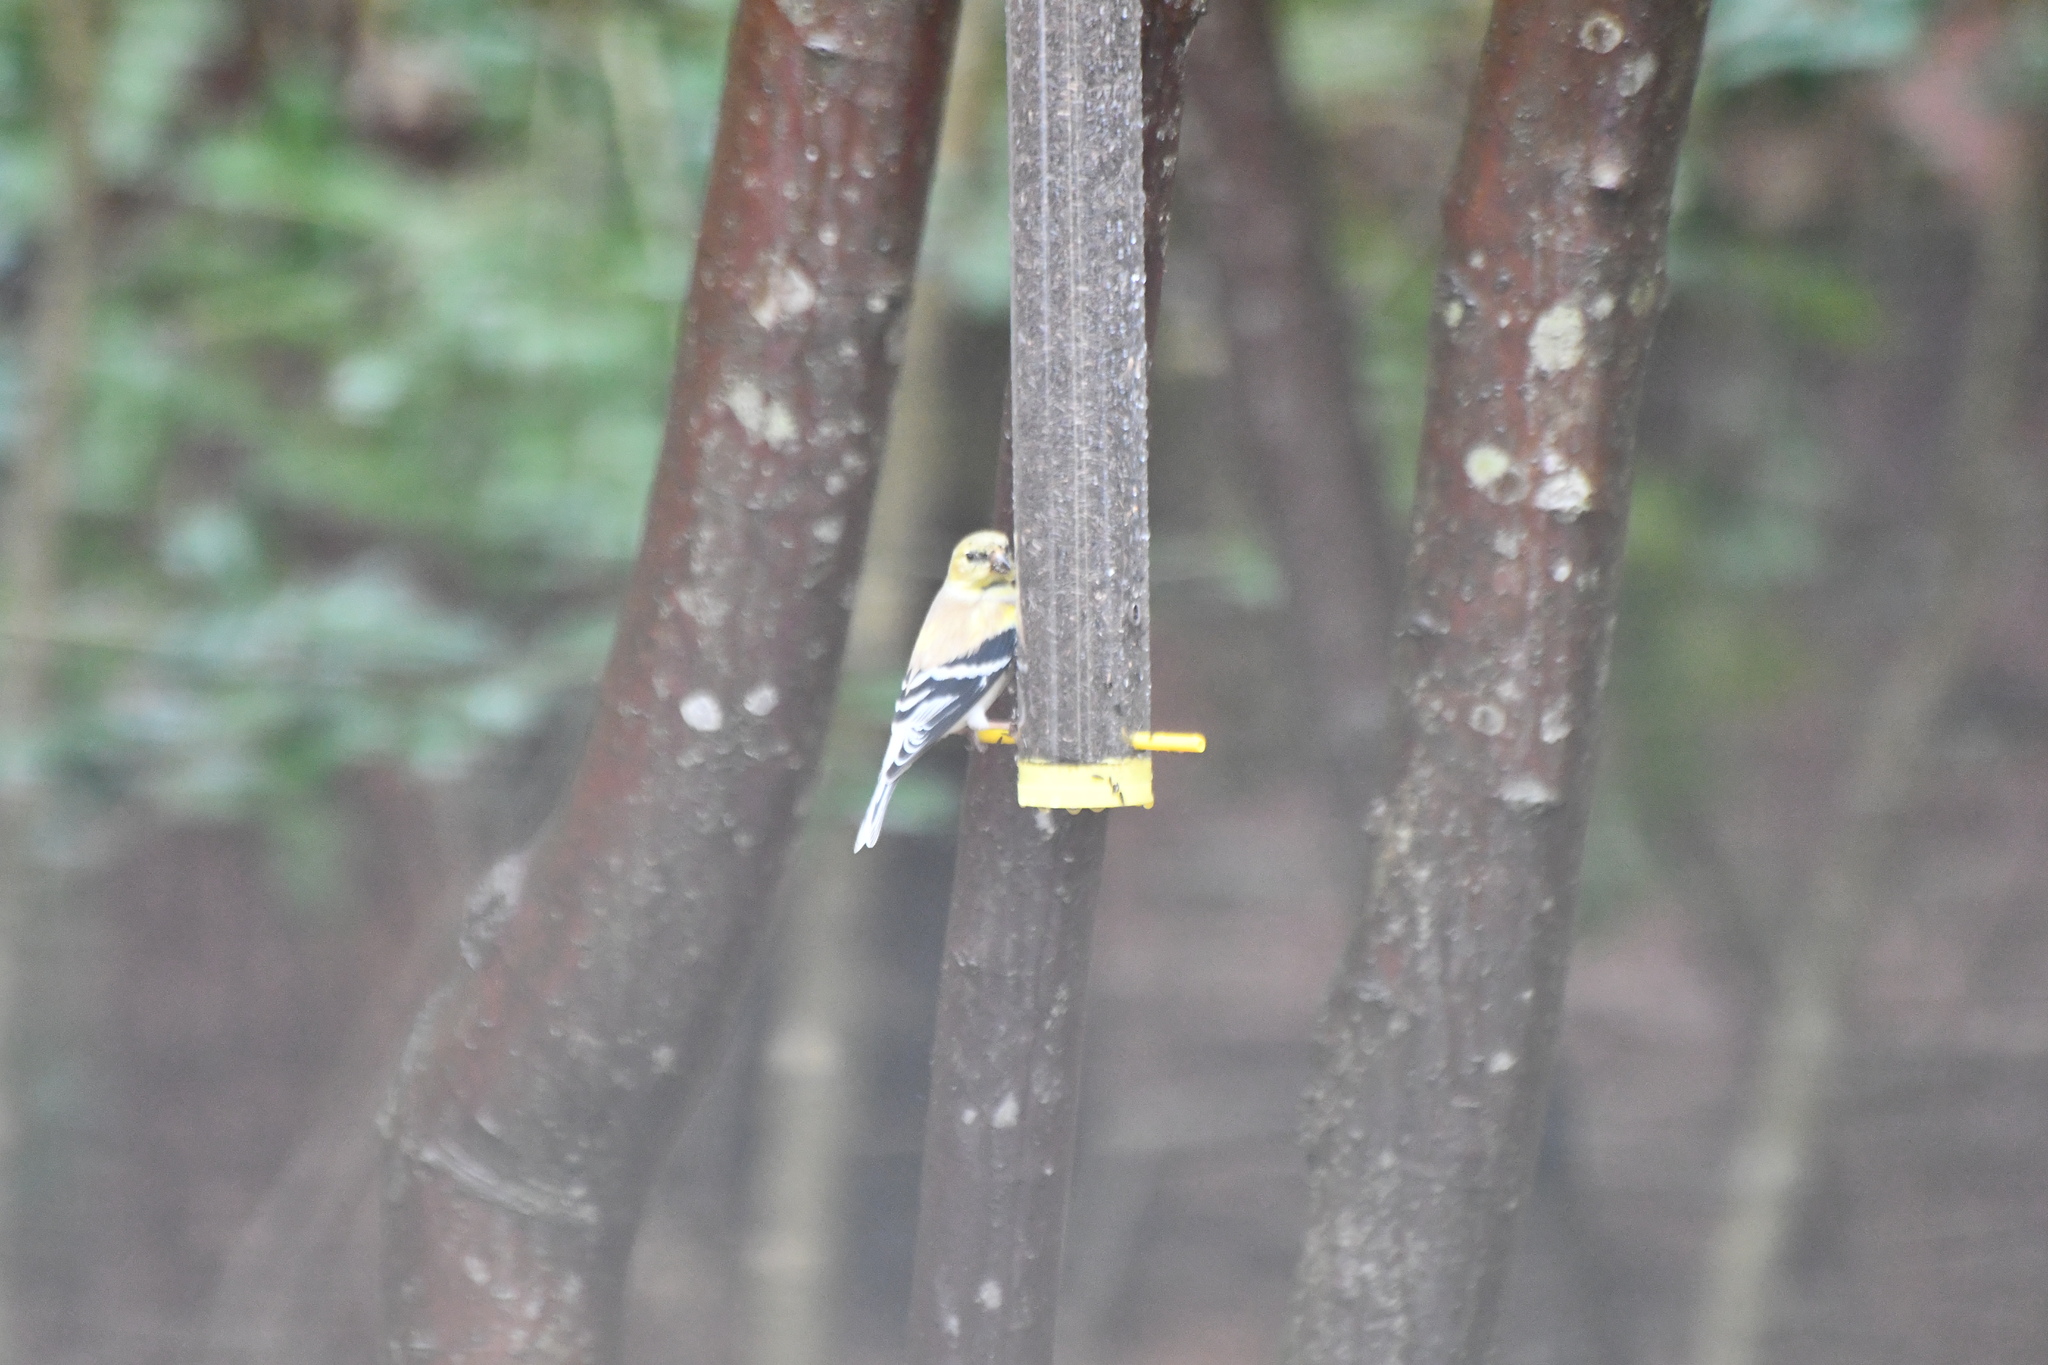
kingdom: Animalia
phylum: Chordata
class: Aves
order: Passeriformes
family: Fringillidae
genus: Spinus
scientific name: Spinus tristis
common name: American goldfinch
